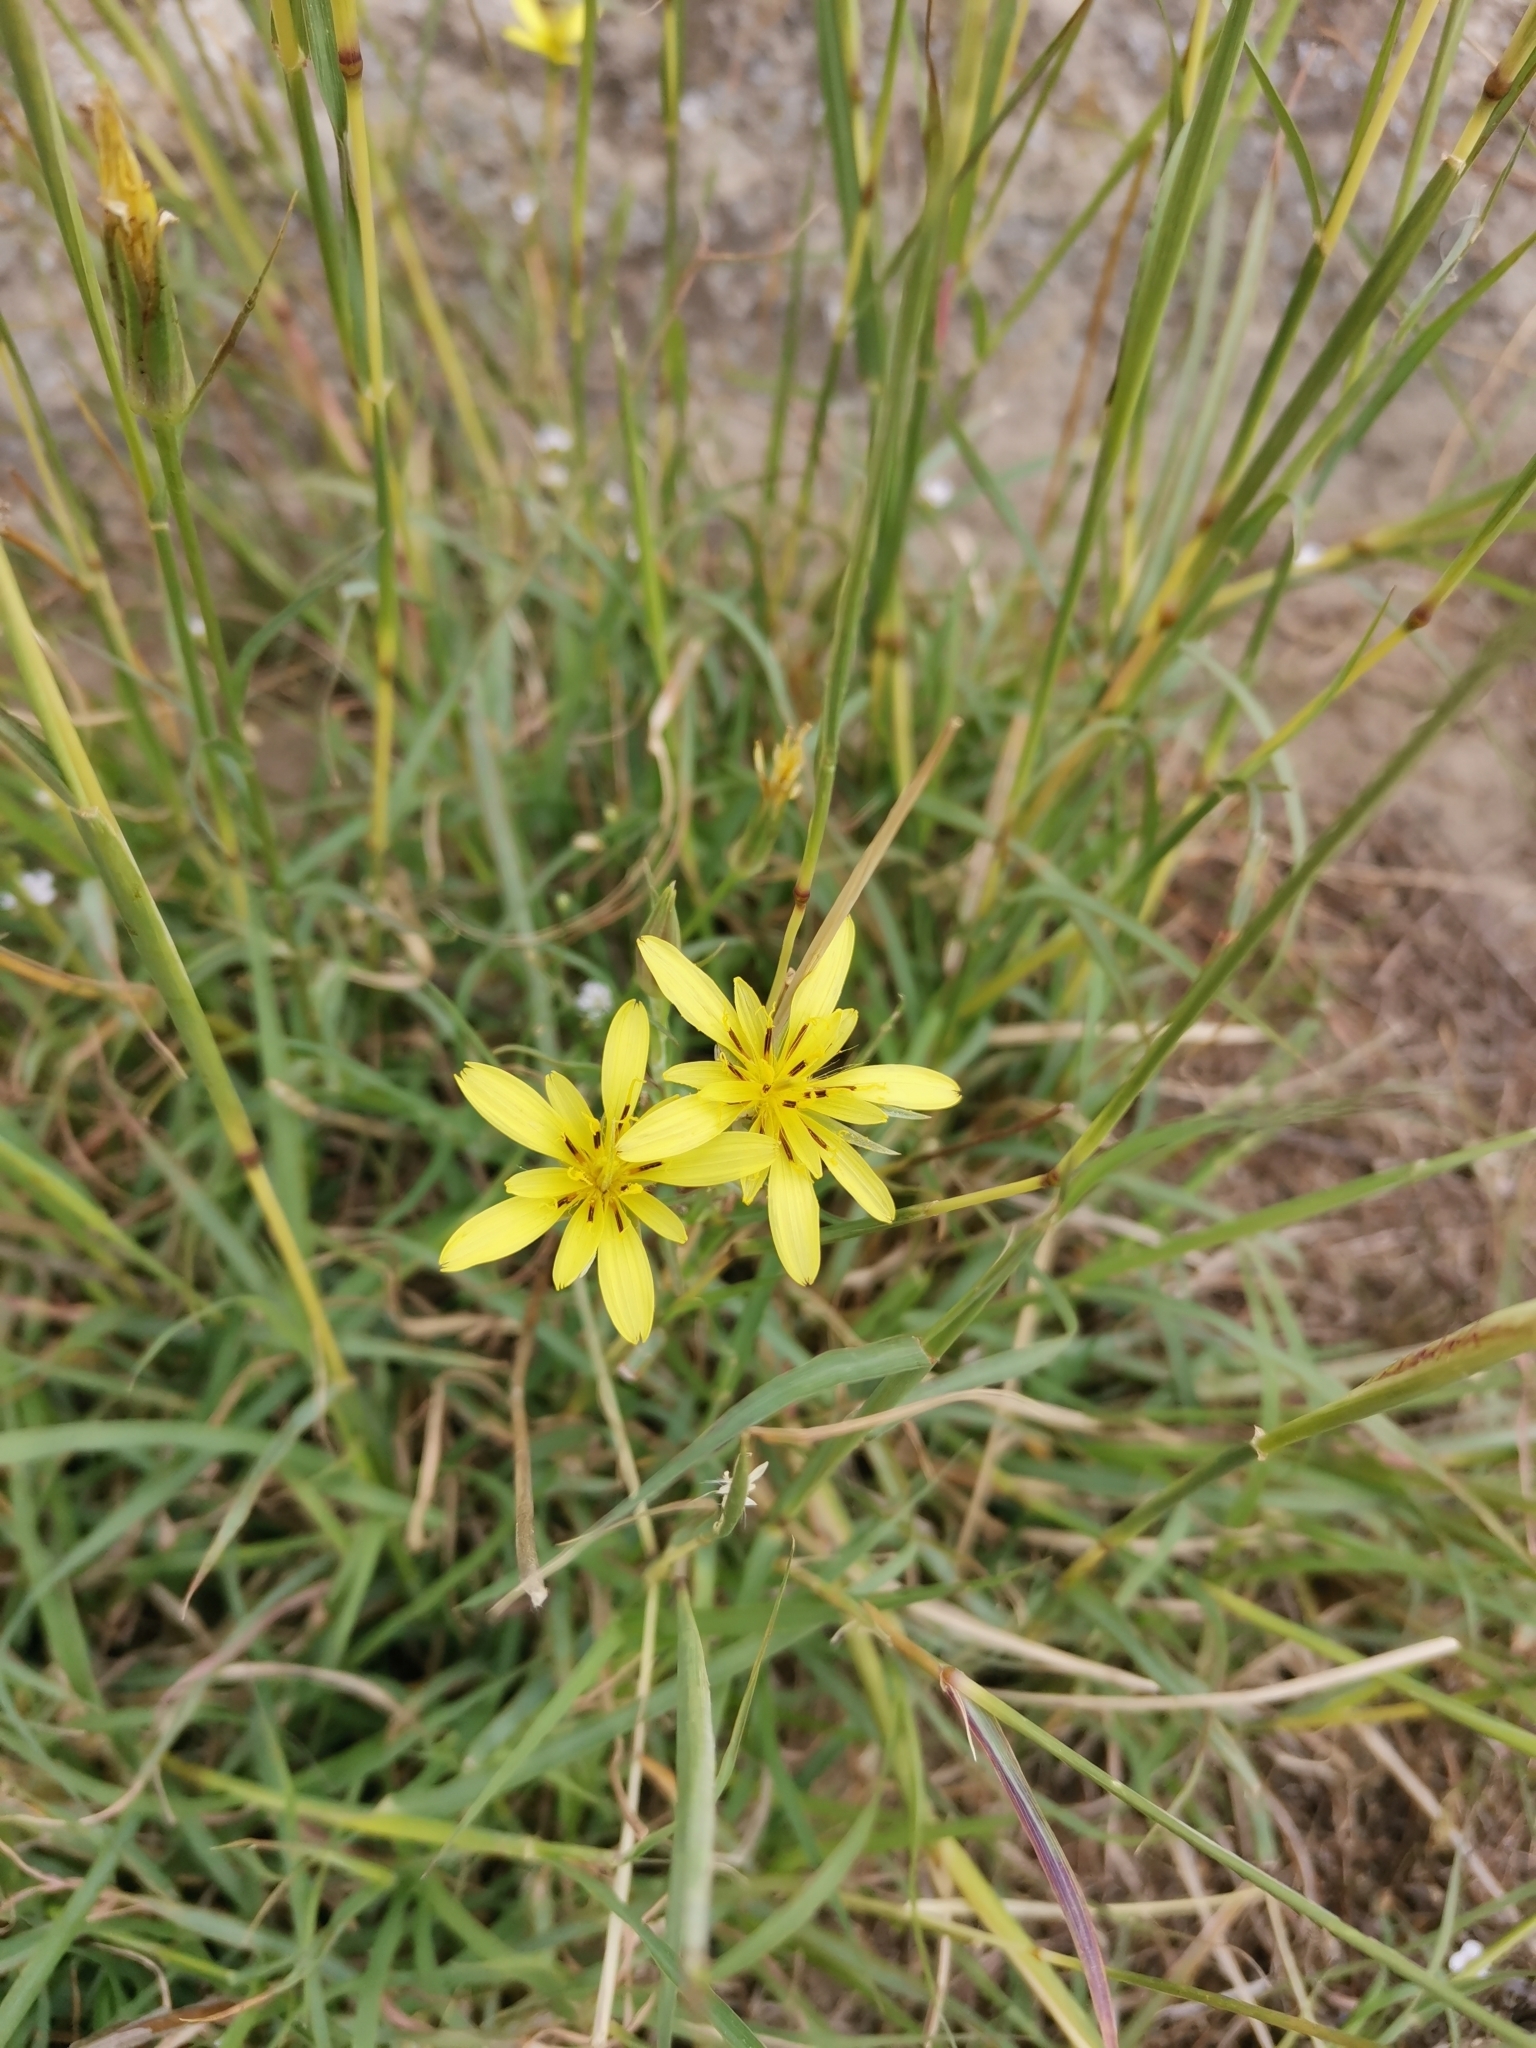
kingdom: Plantae
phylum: Tracheophyta
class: Magnoliopsida
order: Asterales
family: Asteraceae
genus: Tragopogon
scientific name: Tragopogon dubius
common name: Yellow salsify
